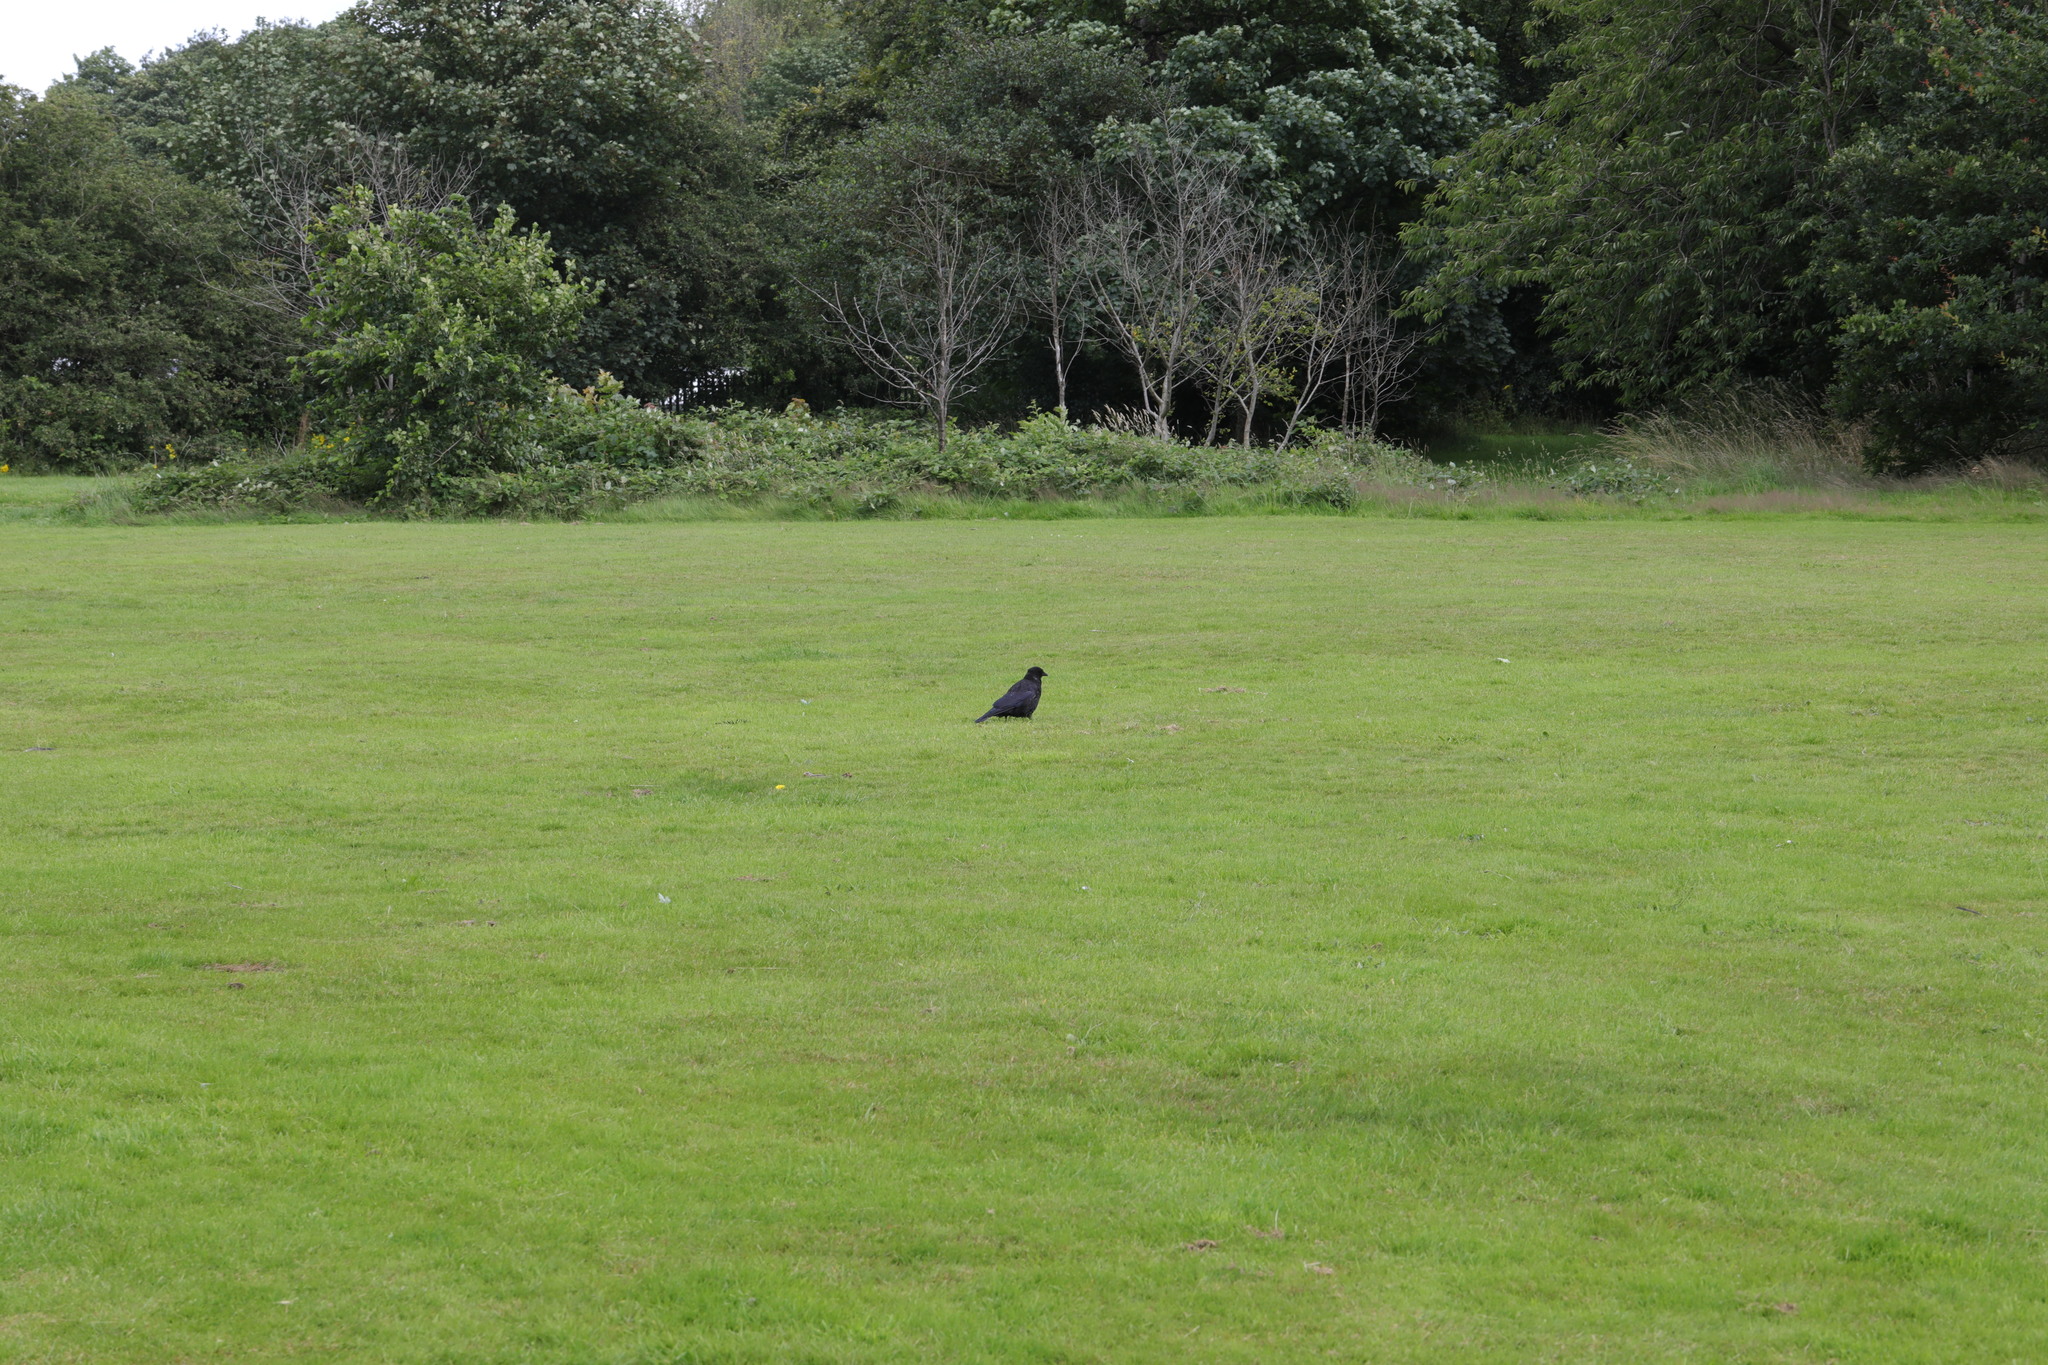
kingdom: Animalia
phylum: Chordata
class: Aves
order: Passeriformes
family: Corvidae
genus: Corvus
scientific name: Corvus corone
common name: Carrion crow
